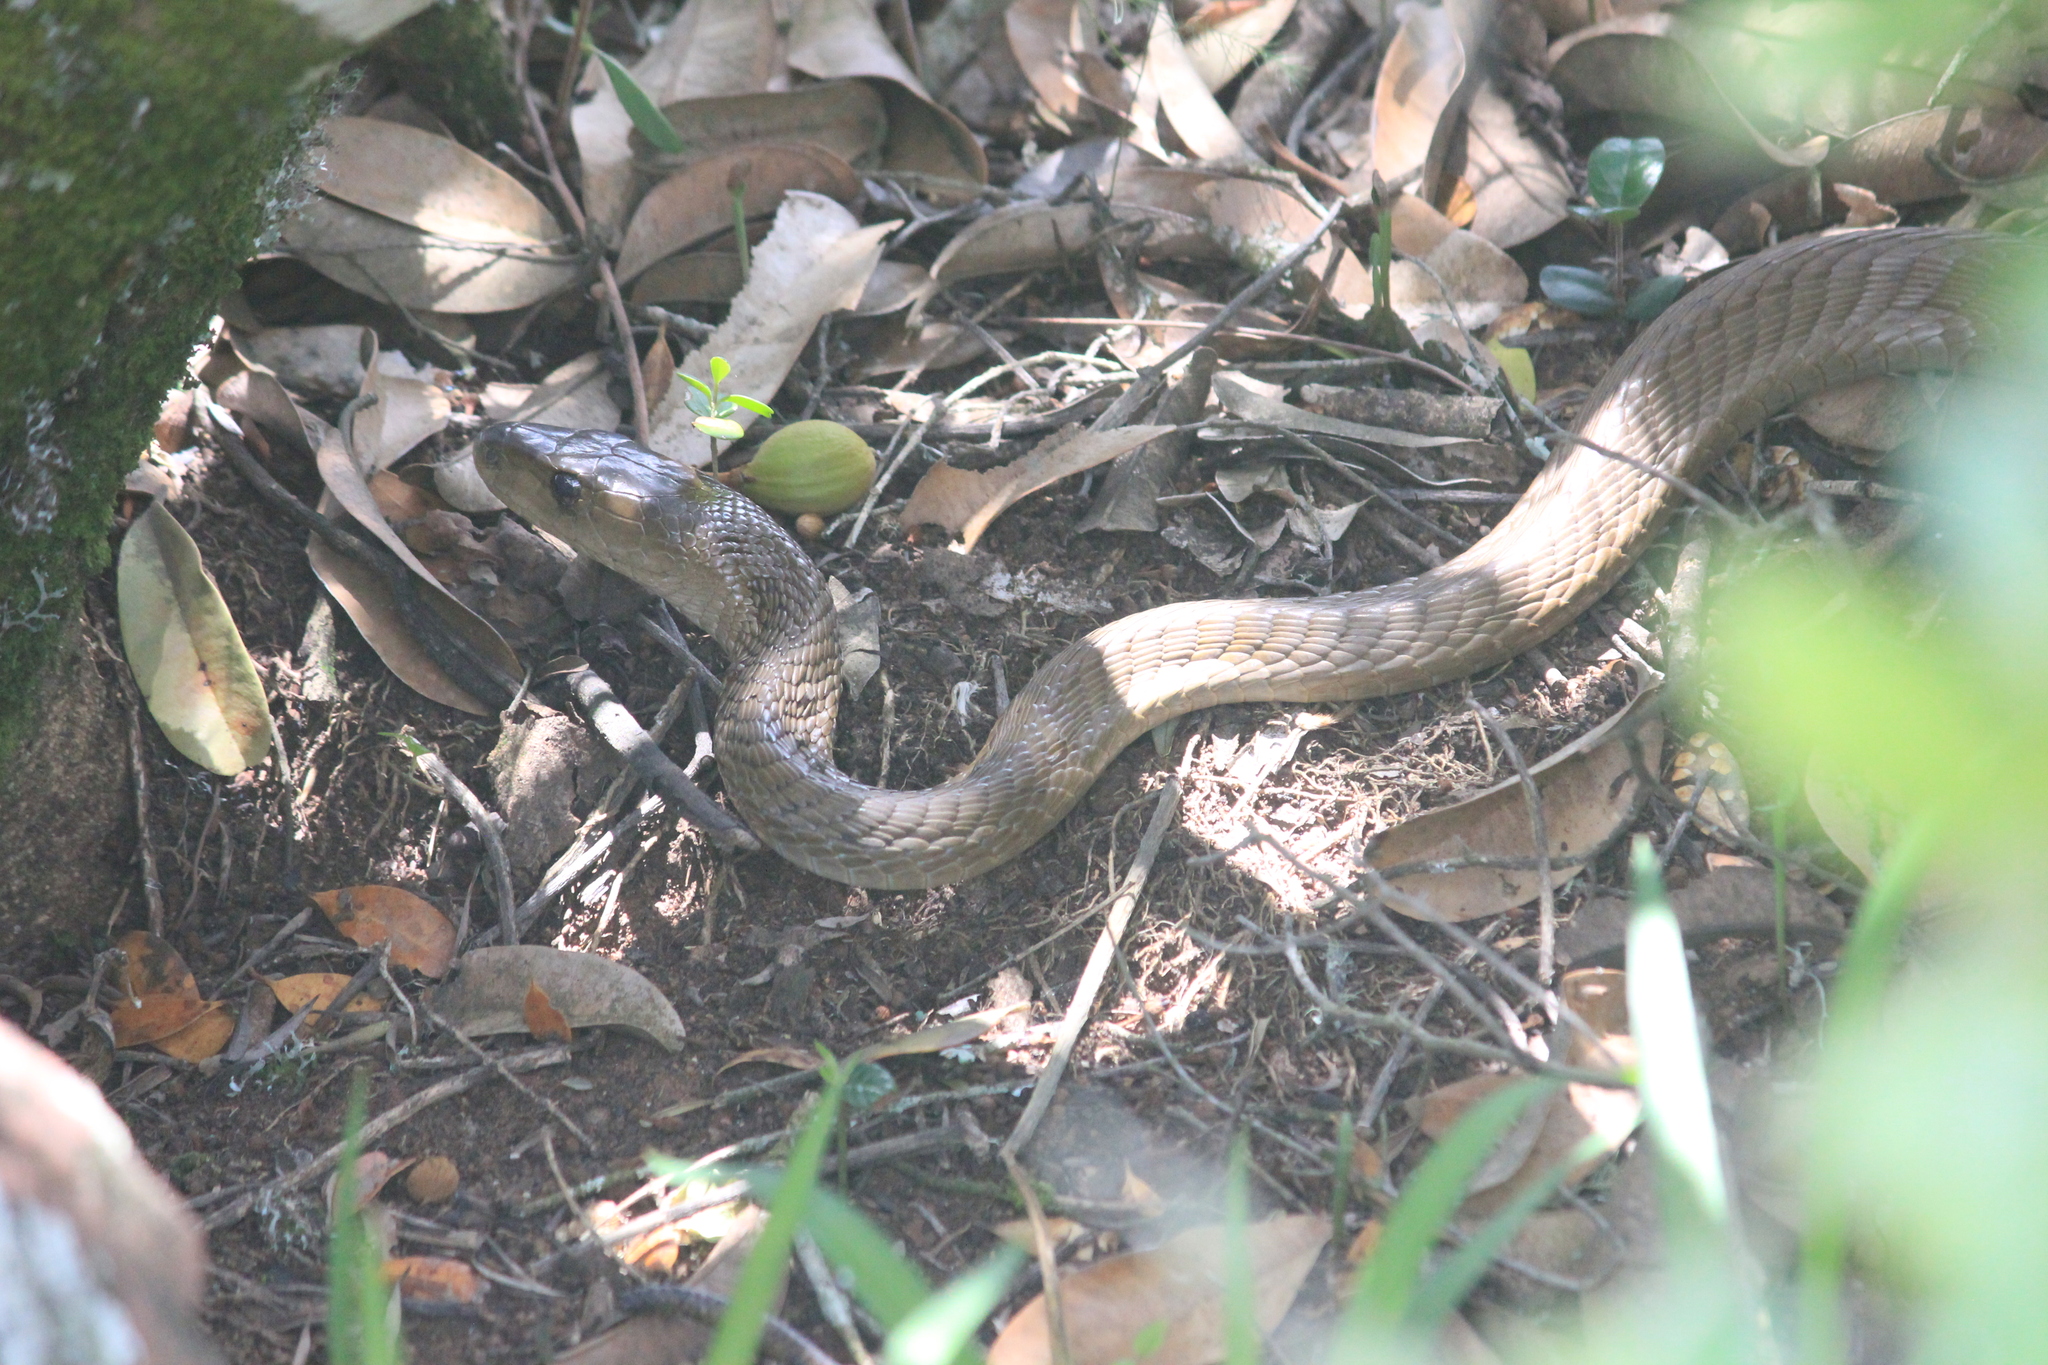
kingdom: Animalia
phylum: Chordata
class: Squamata
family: Elapidae
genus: Dendroaspis
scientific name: Dendroaspis polylepis
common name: Black mamba
